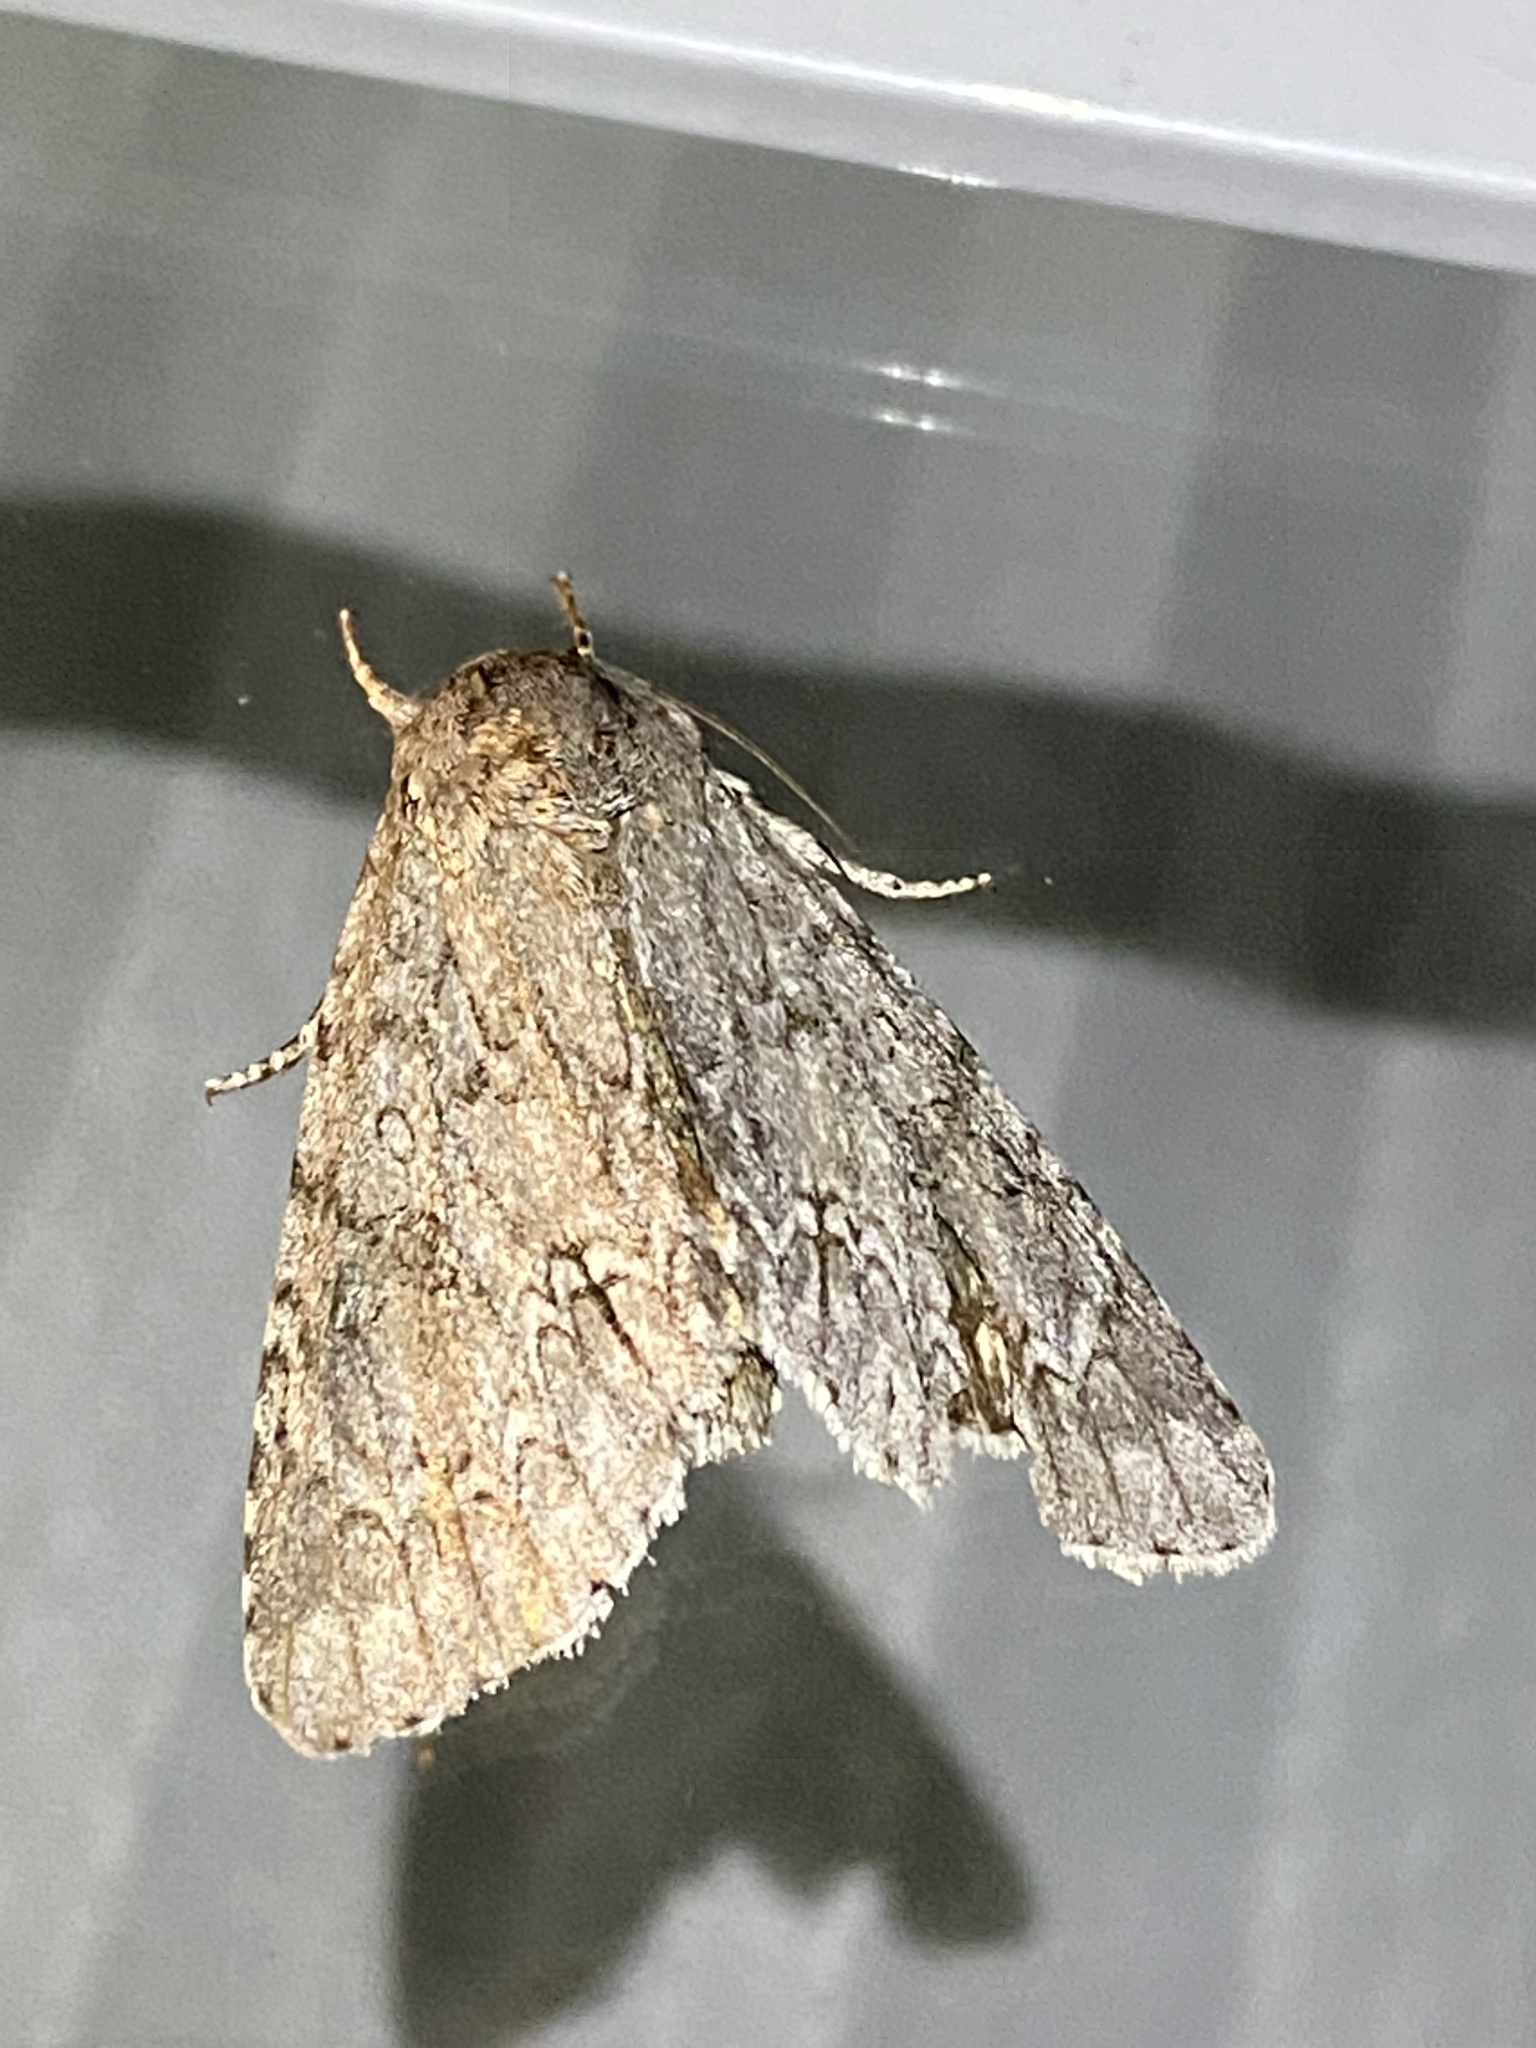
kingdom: Animalia
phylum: Arthropoda
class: Insecta
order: Lepidoptera
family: Noctuidae
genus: Acronicta
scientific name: Acronicta americana
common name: American dagger
